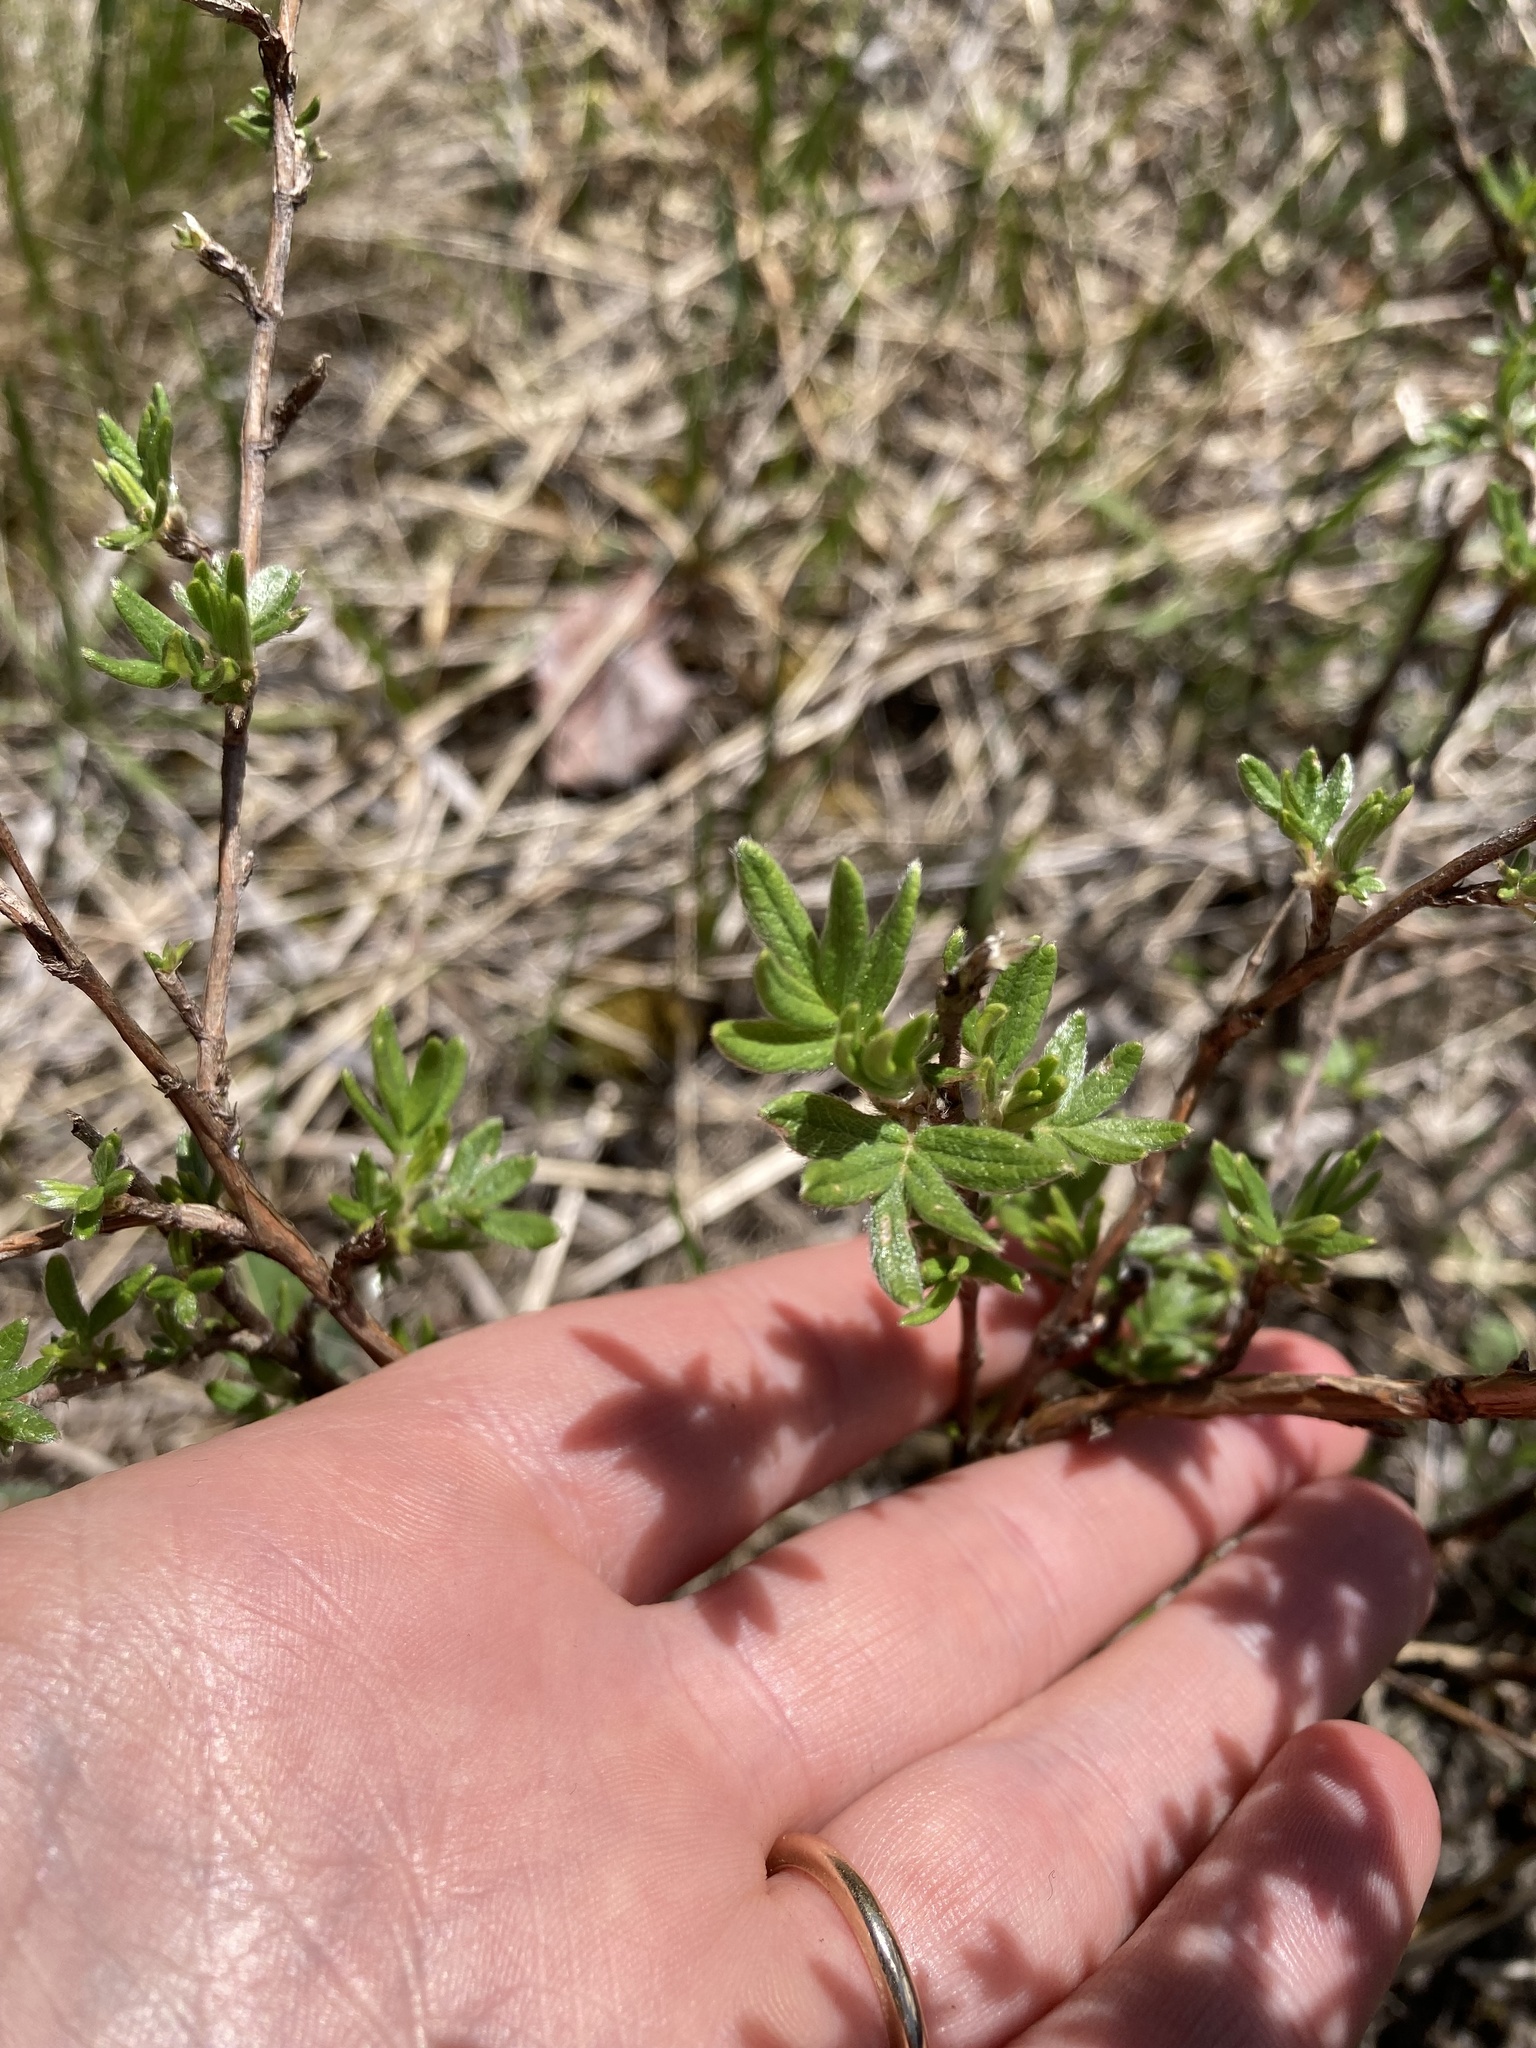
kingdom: Plantae
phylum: Tracheophyta
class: Magnoliopsida
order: Rosales
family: Rosaceae
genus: Dasiphora
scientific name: Dasiphora fruticosa
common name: Shrubby cinquefoil
